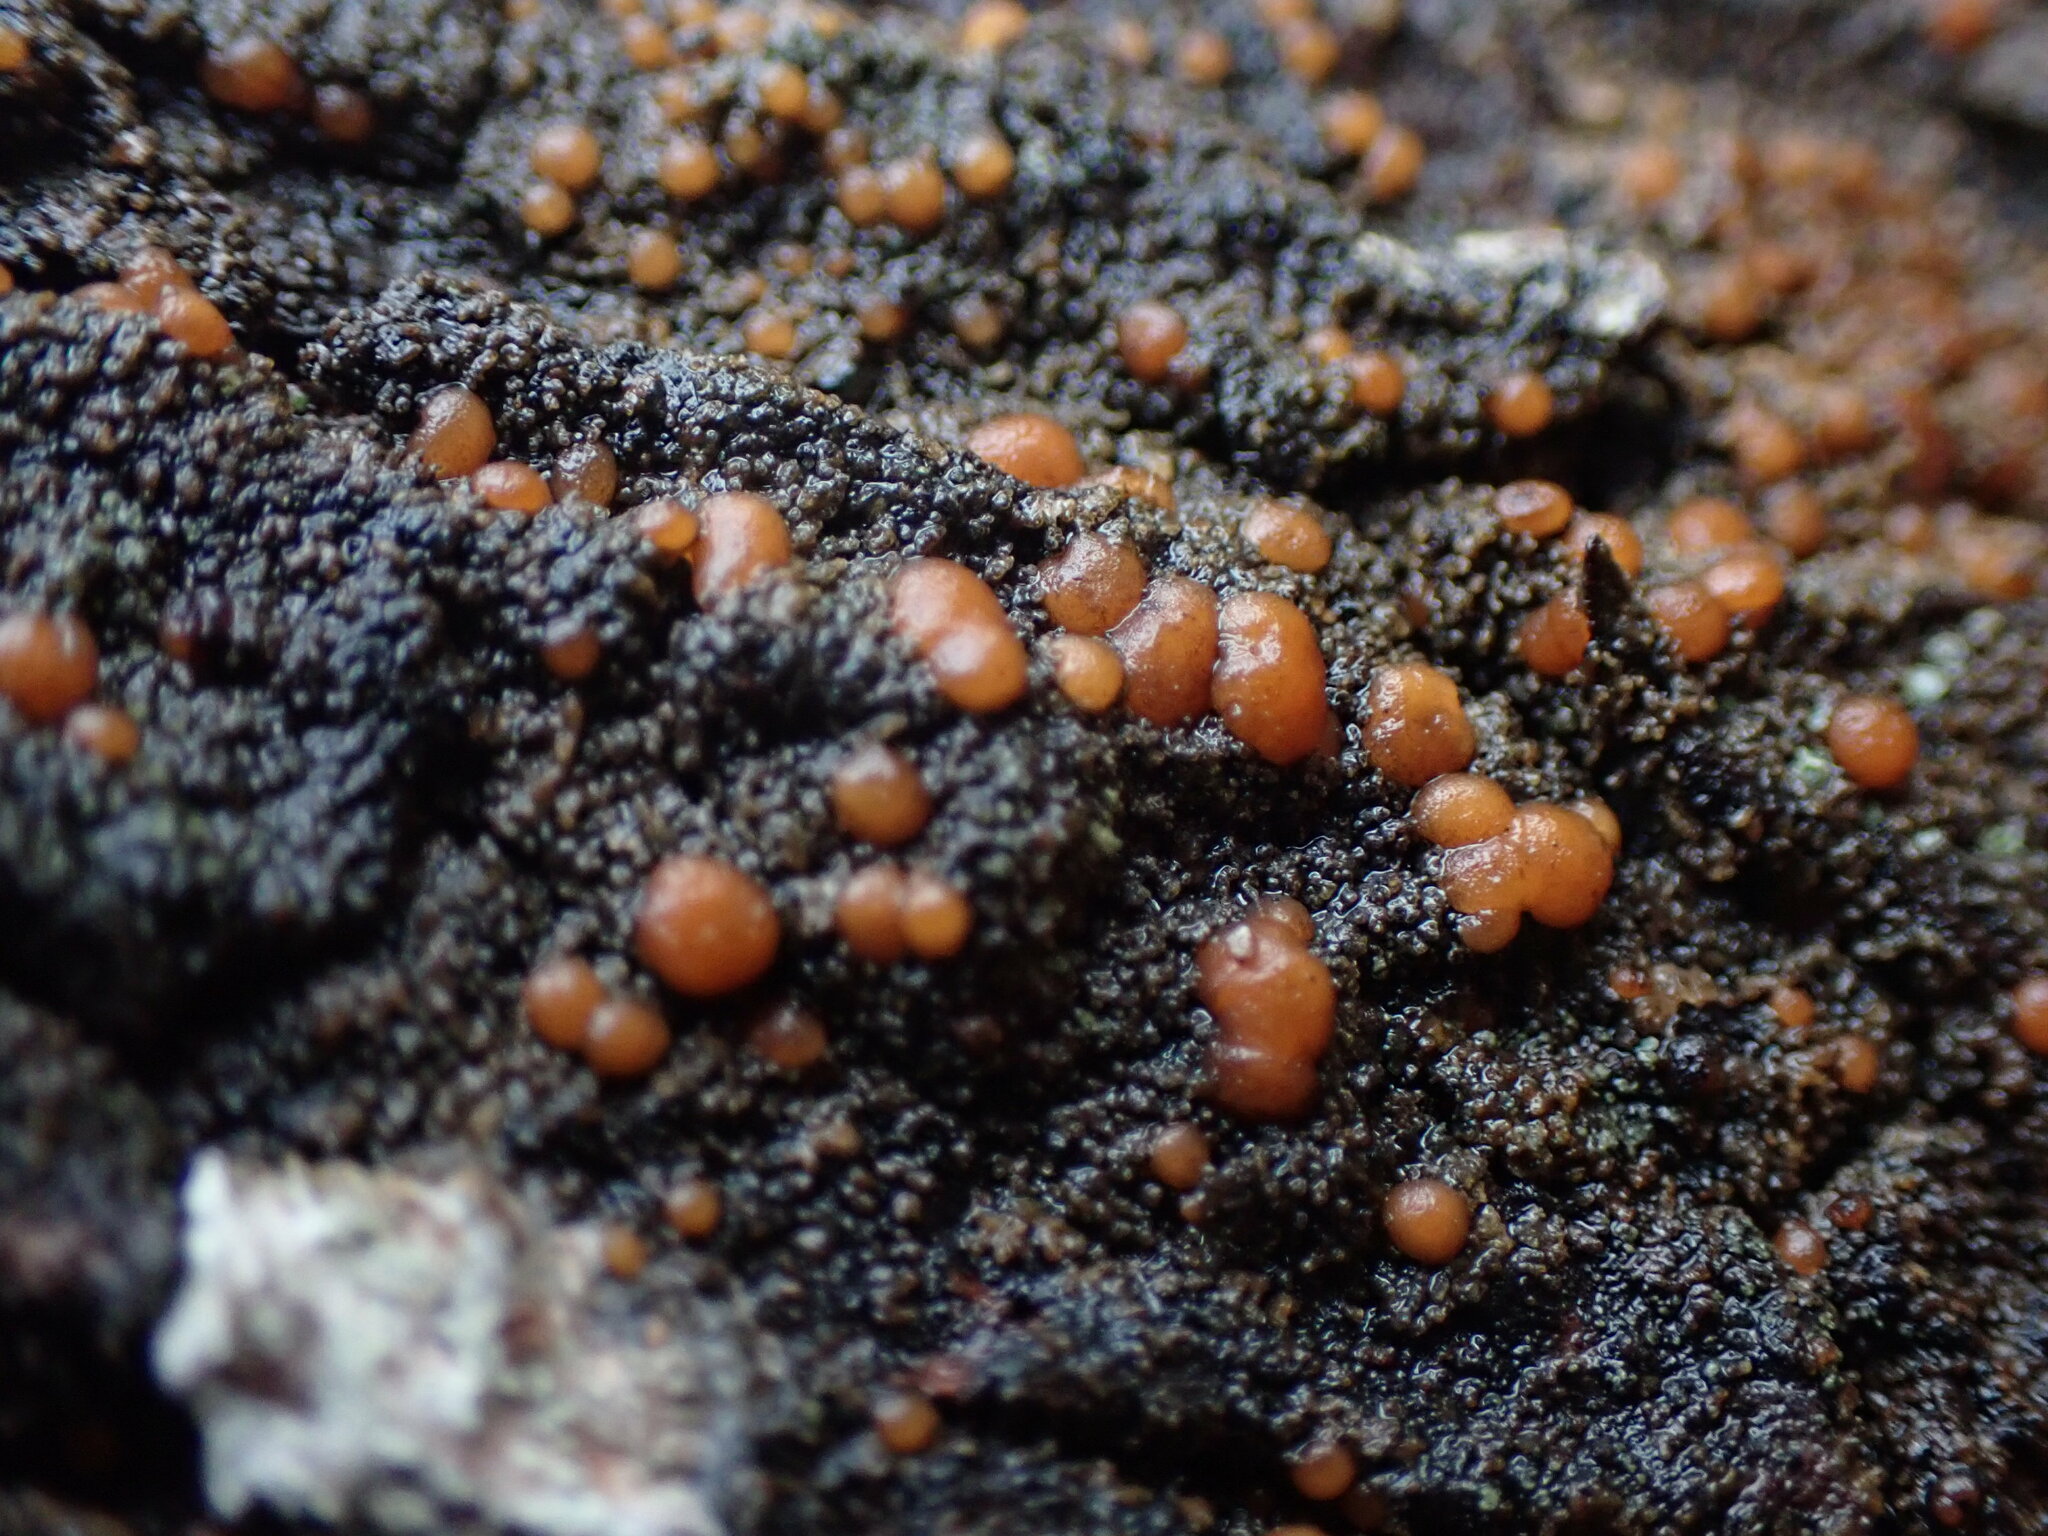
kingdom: Fungi
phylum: Ascomycota
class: Lecanoromycetes
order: Peltigerales
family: Vahliellaceae
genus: Vahliella
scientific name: Vahliella saubinetii
